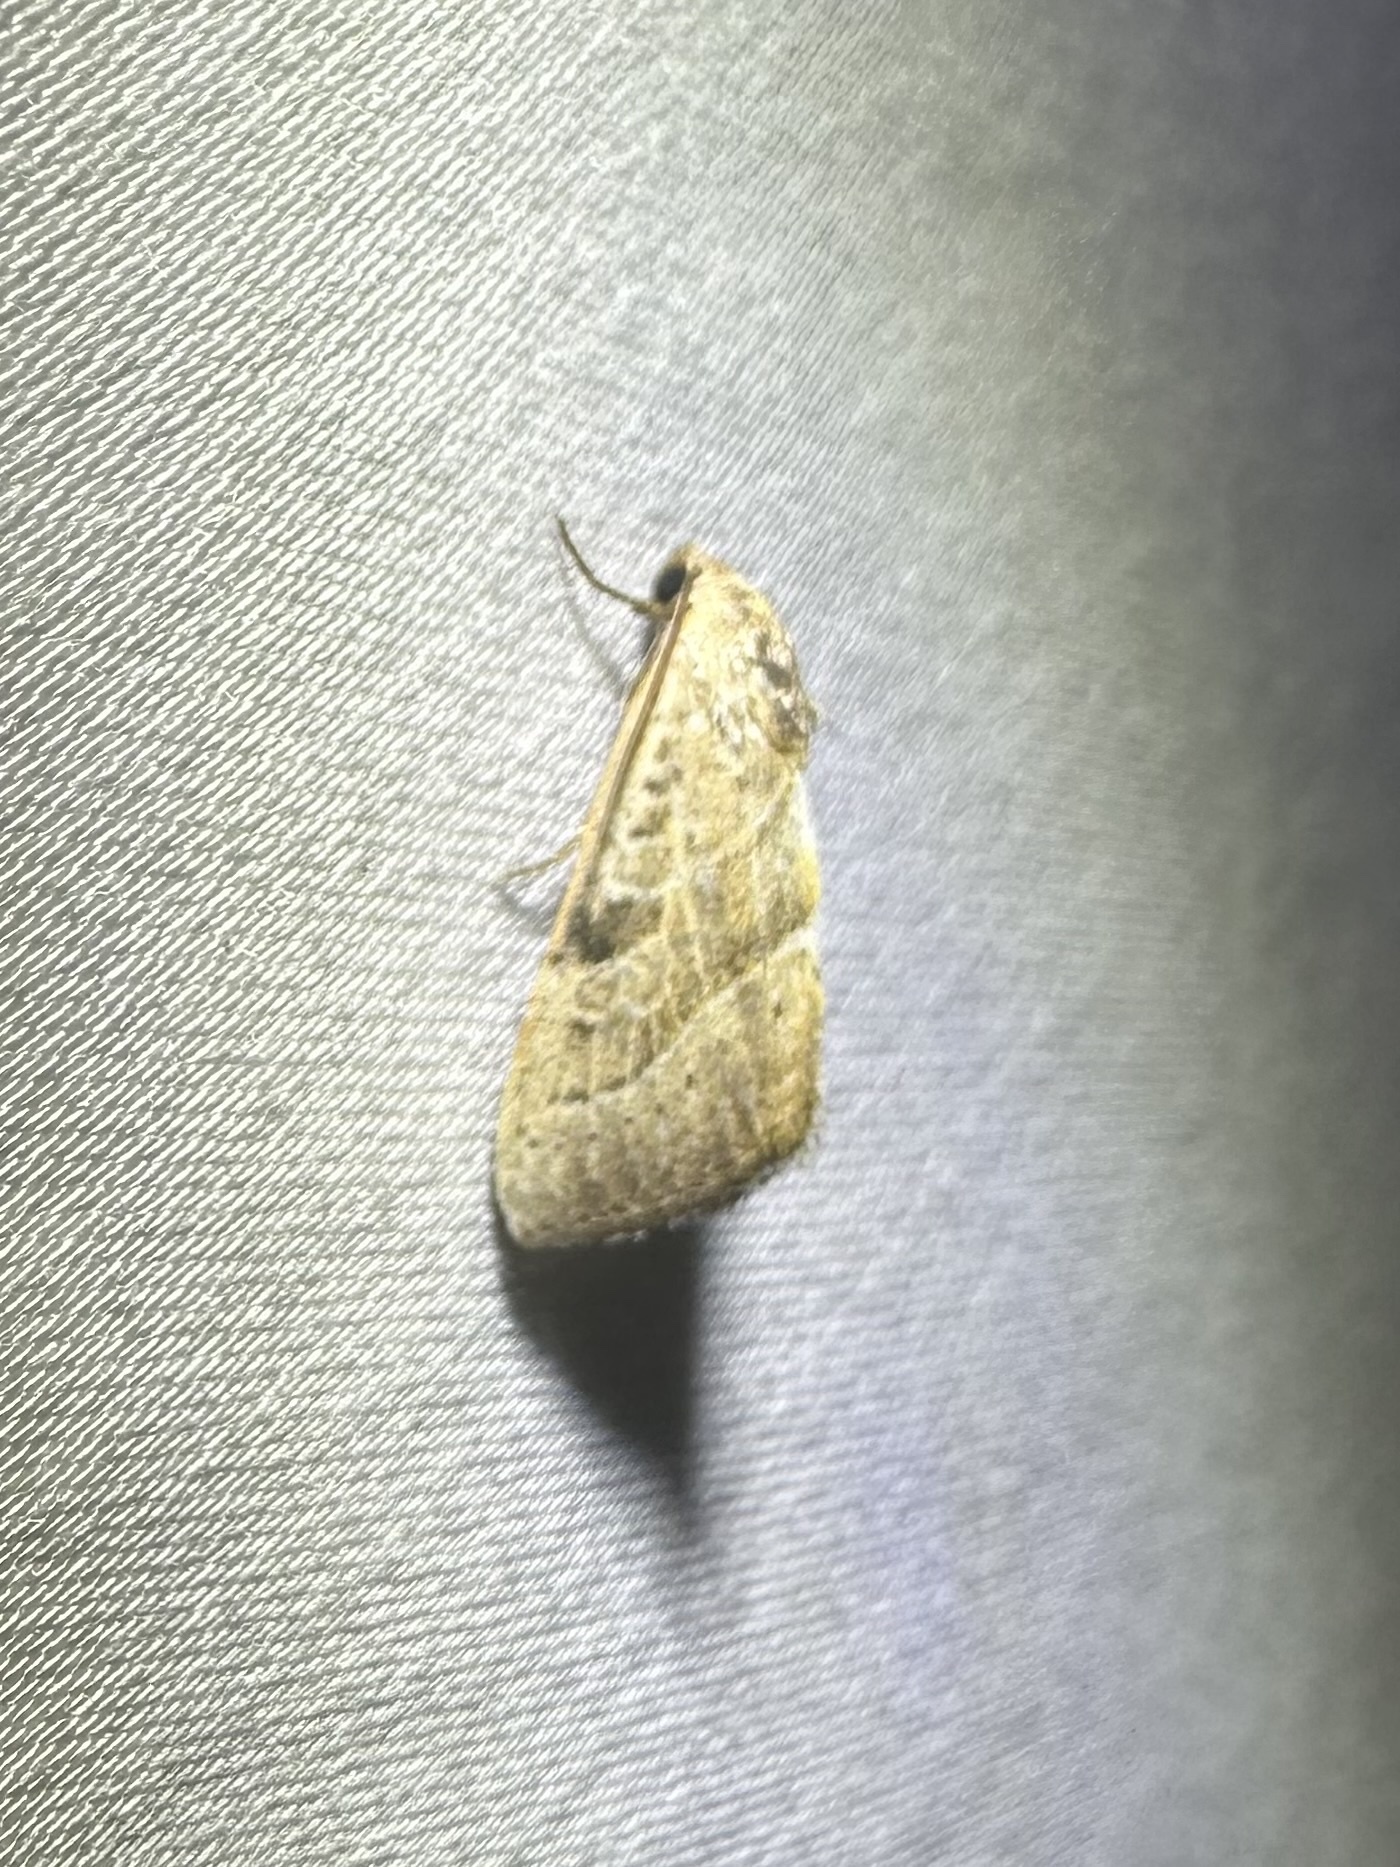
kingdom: Animalia
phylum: Arthropoda
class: Insecta
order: Lepidoptera
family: Noctuidae
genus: Galgula
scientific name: Galgula partita
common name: Wedgeling
